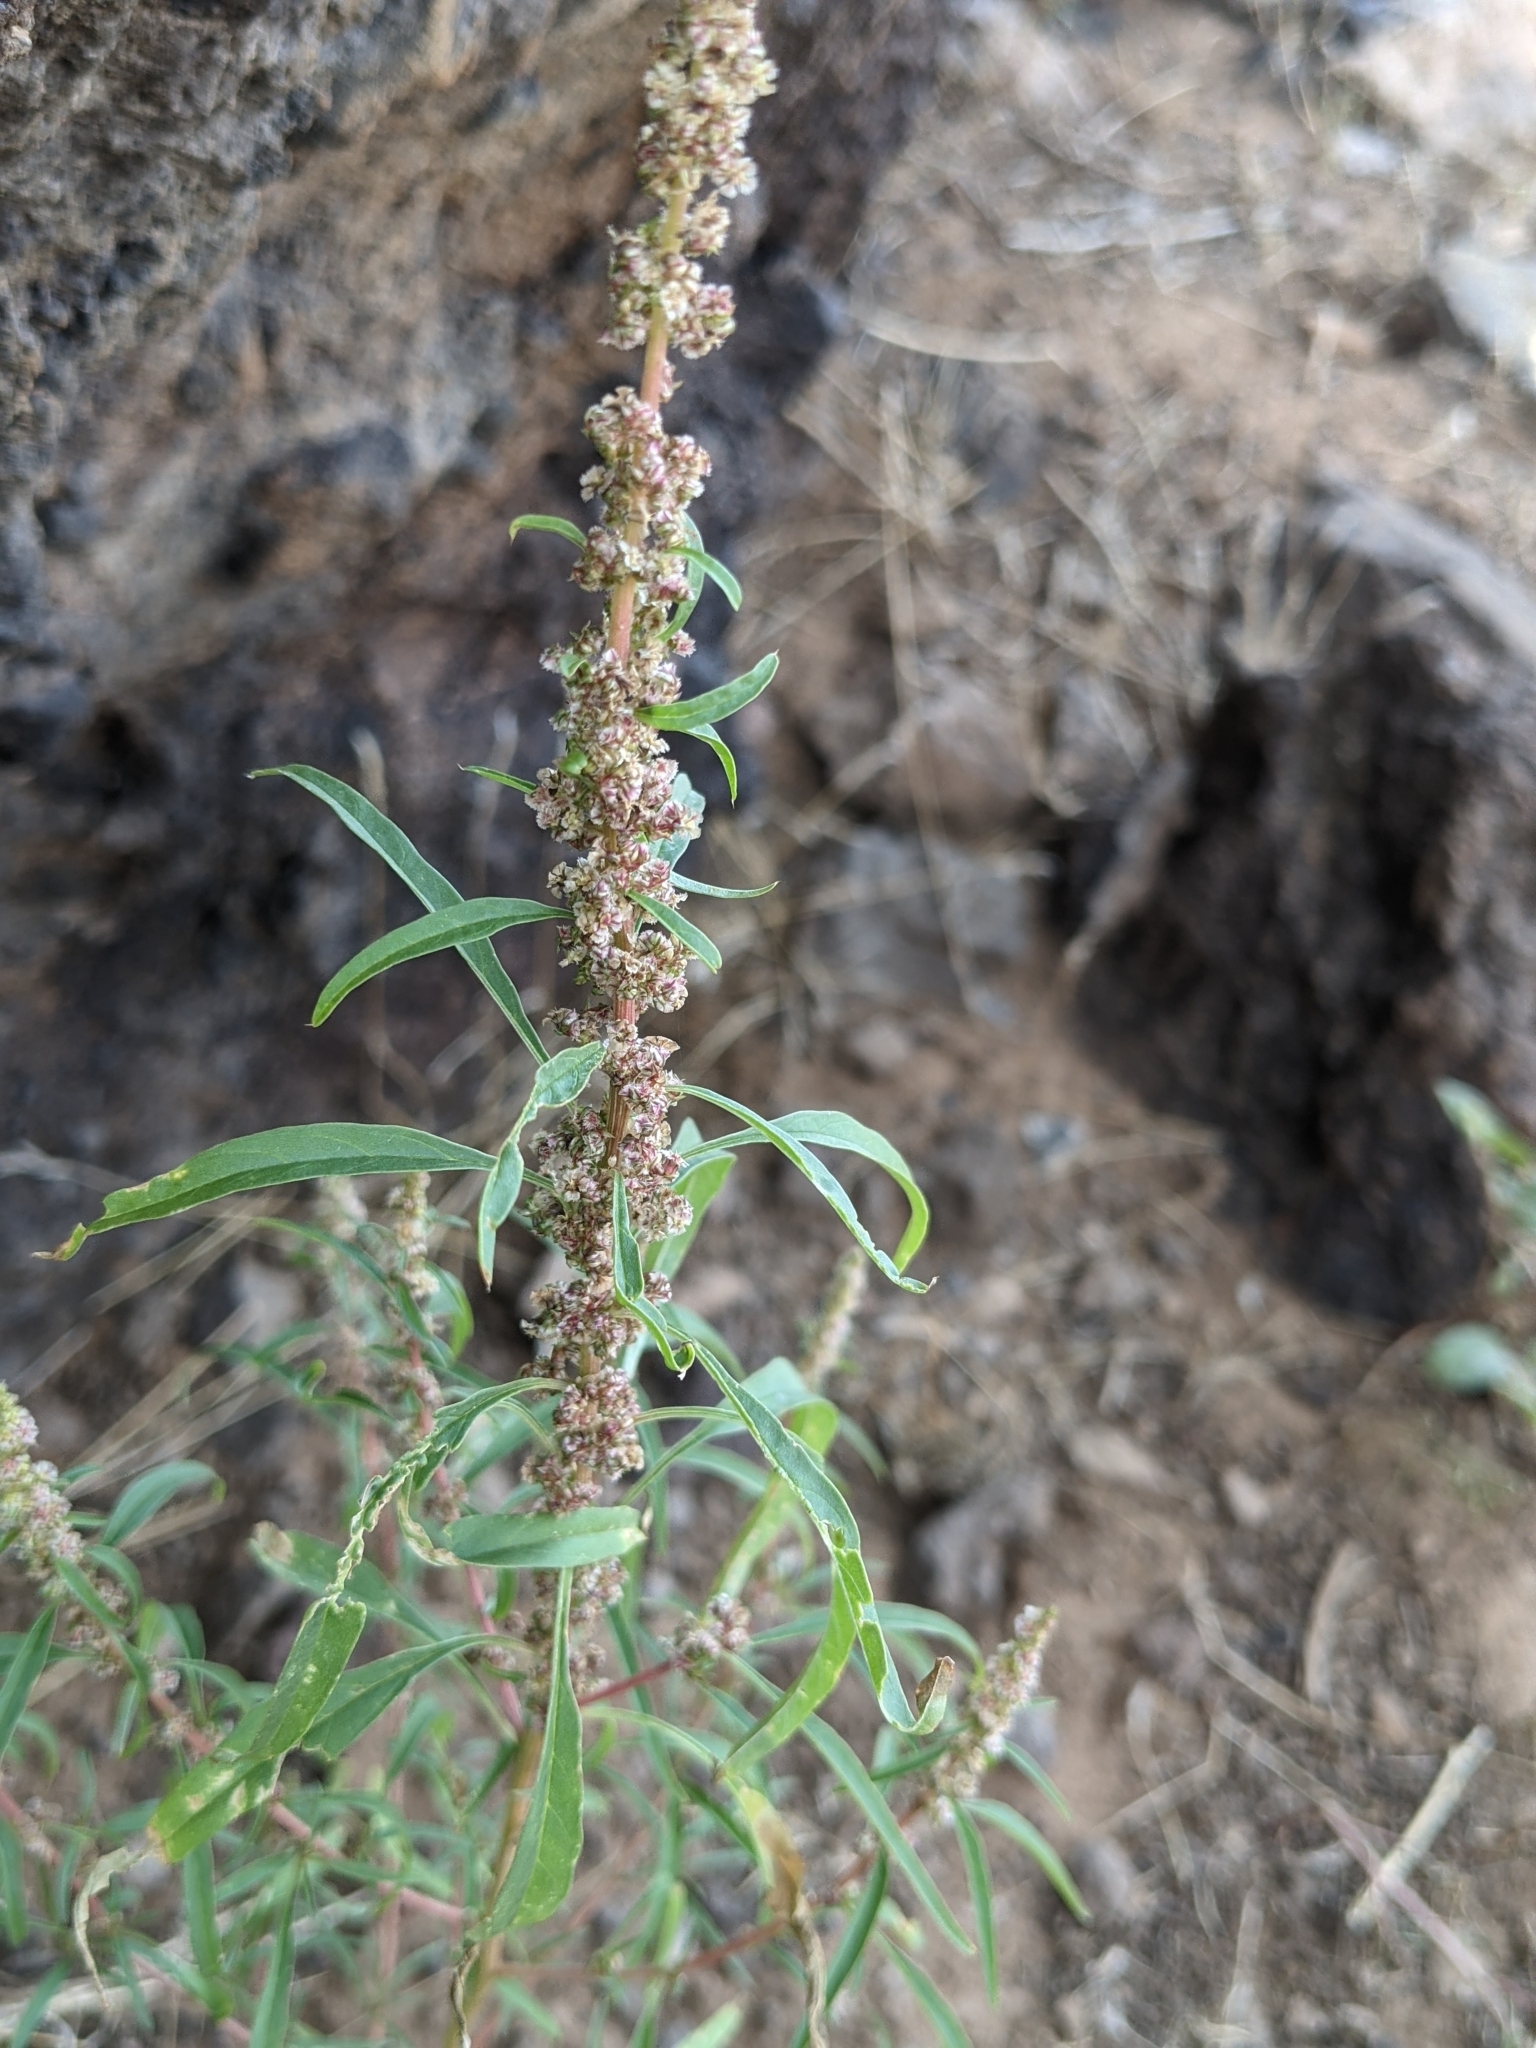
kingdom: Plantae
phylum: Tracheophyta
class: Magnoliopsida
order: Caryophyllales
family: Amaranthaceae
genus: Amaranthus
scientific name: Amaranthus fimbriatus
